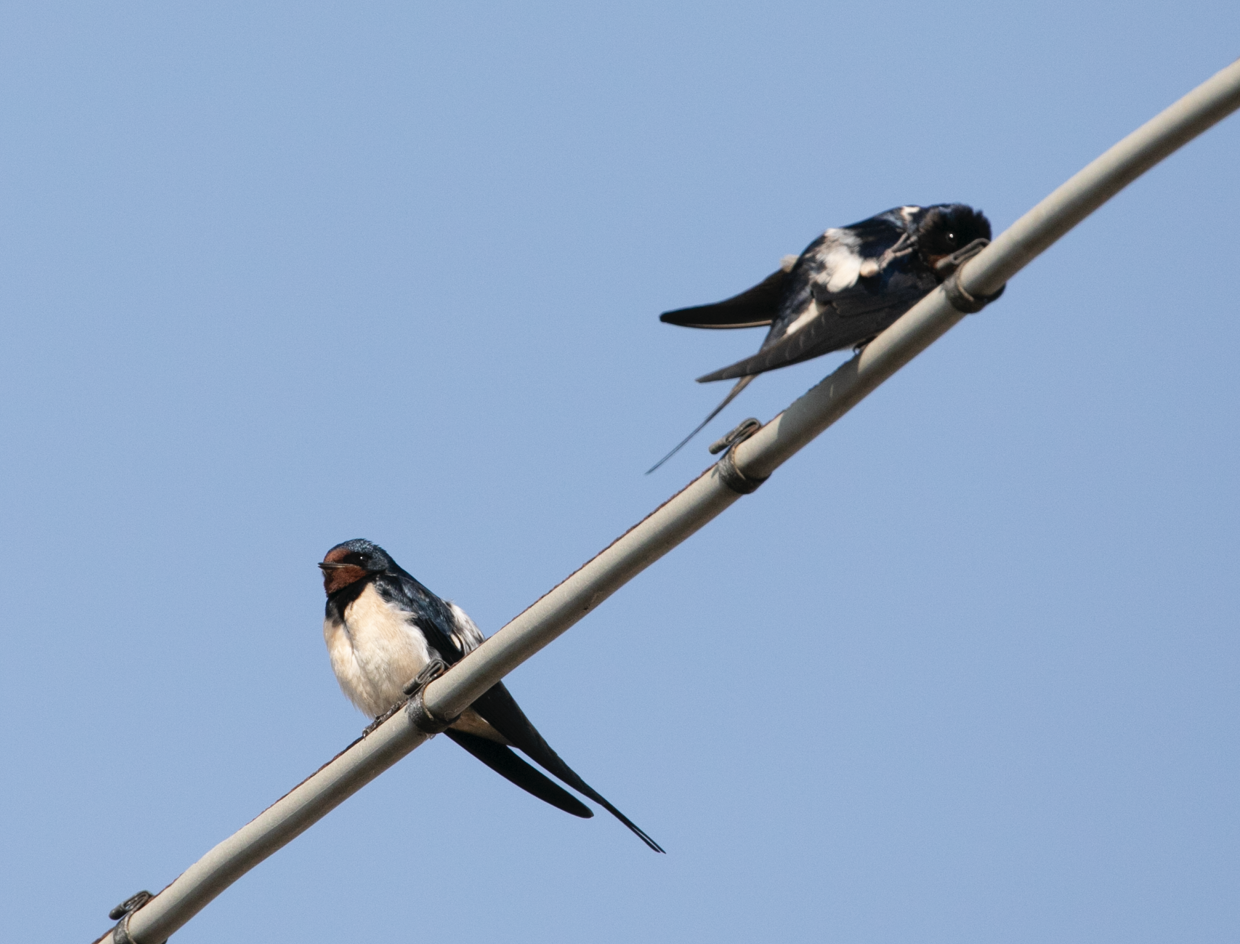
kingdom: Animalia
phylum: Chordata
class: Aves
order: Passeriformes
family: Hirundinidae
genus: Hirundo
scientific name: Hirundo rustica
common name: Barn swallow
